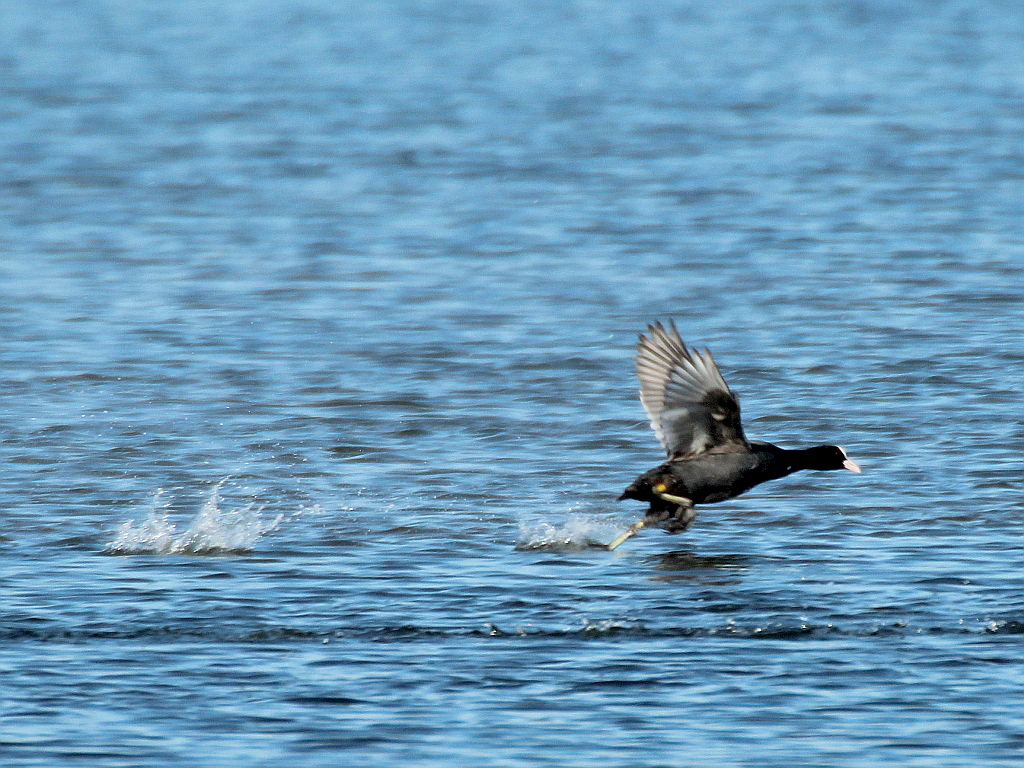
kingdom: Animalia
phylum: Chordata
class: Aves
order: Gruiformes
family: Rallidae
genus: Fulica
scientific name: Fulica atra
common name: Eurasian coot
